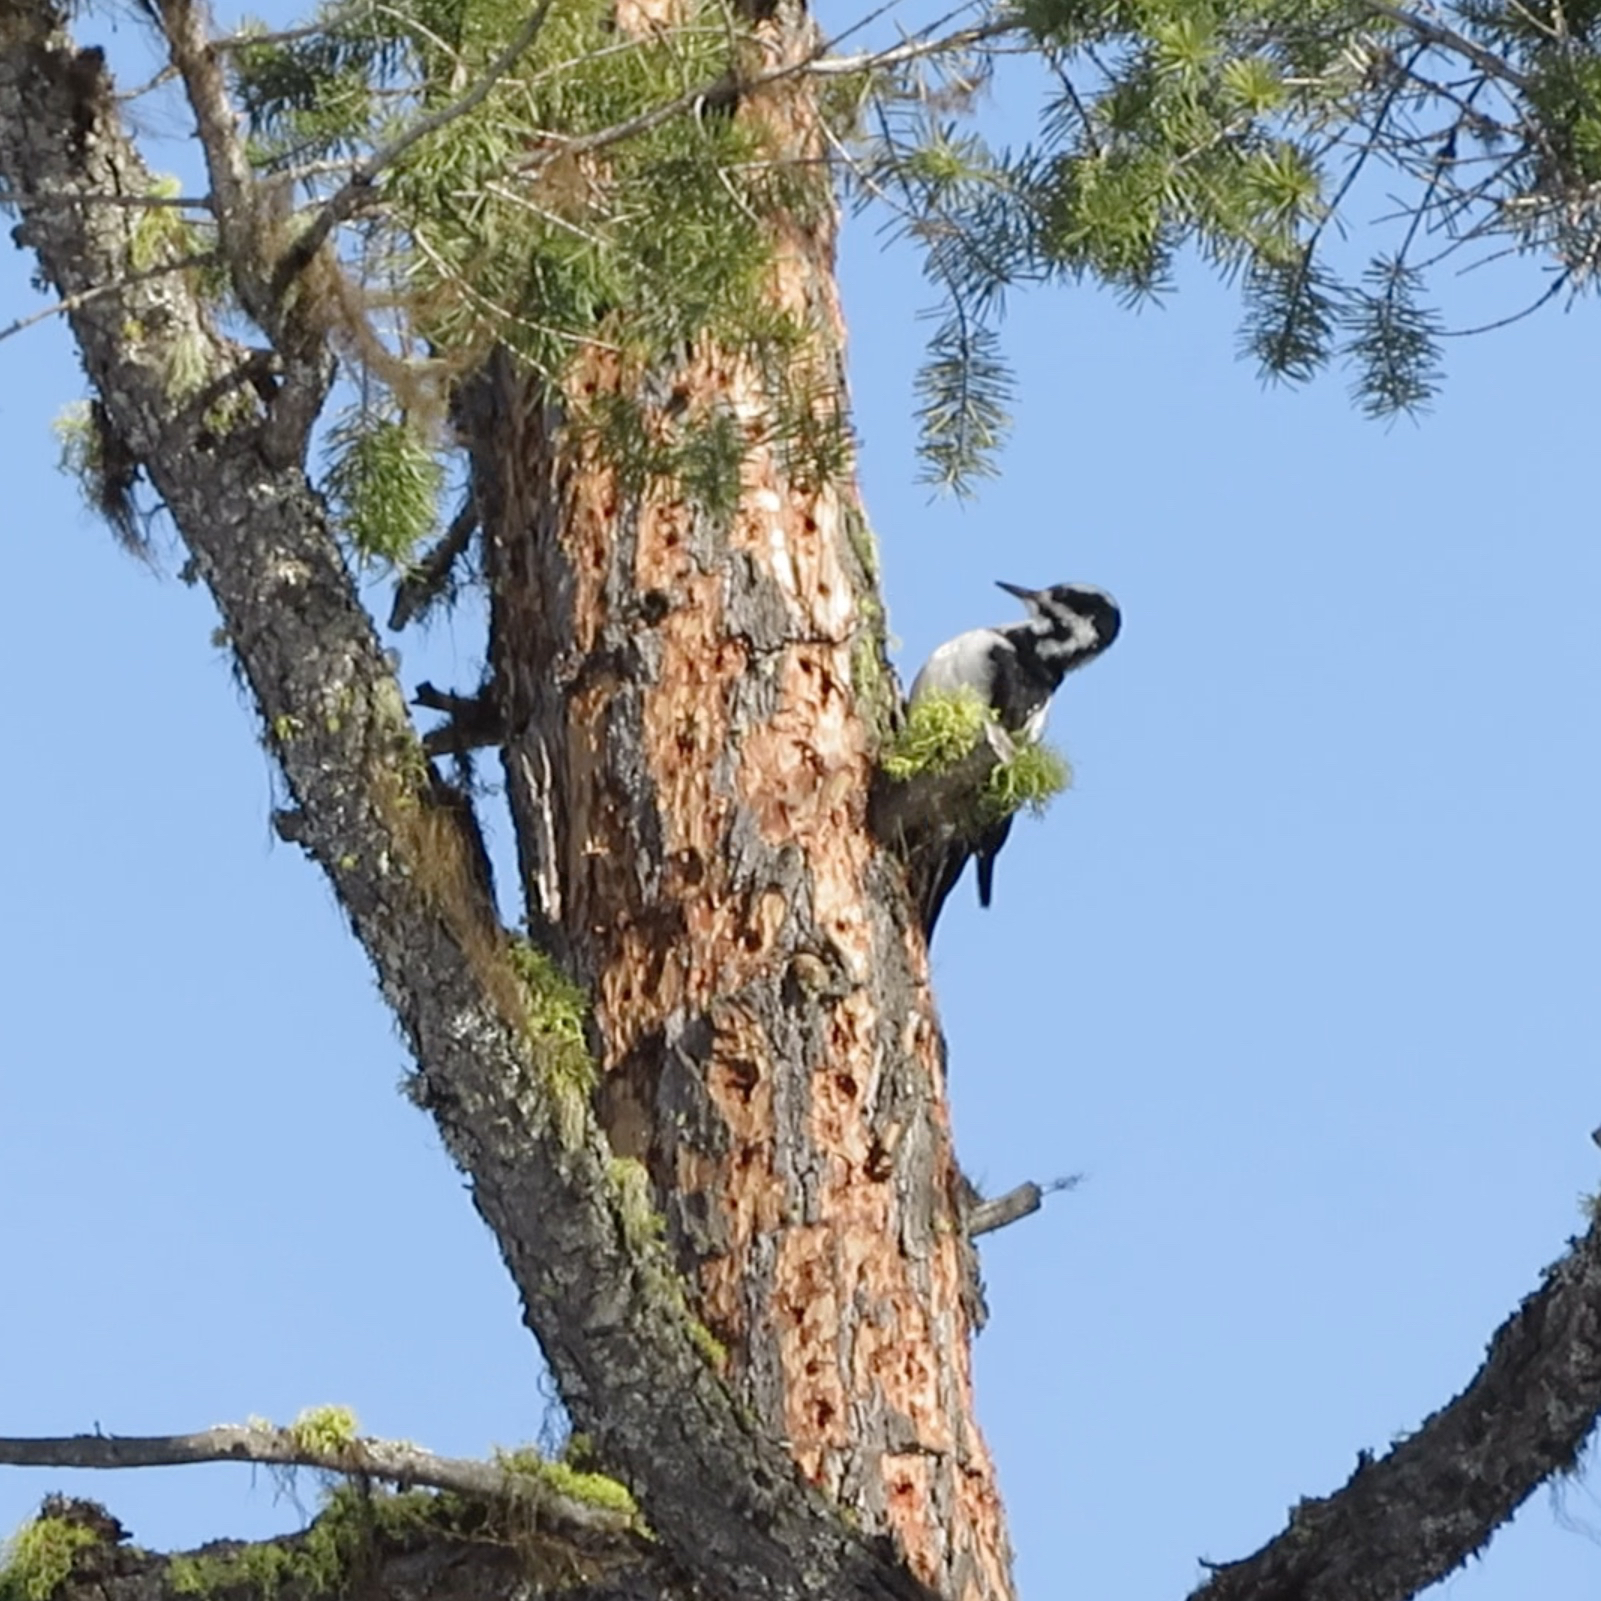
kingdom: Animalia
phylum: Chordata
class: Aves
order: Piciformes
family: Picidae
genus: Leuconotopicus
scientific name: Leuconotopicus villosus
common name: Hairy woodpecker
